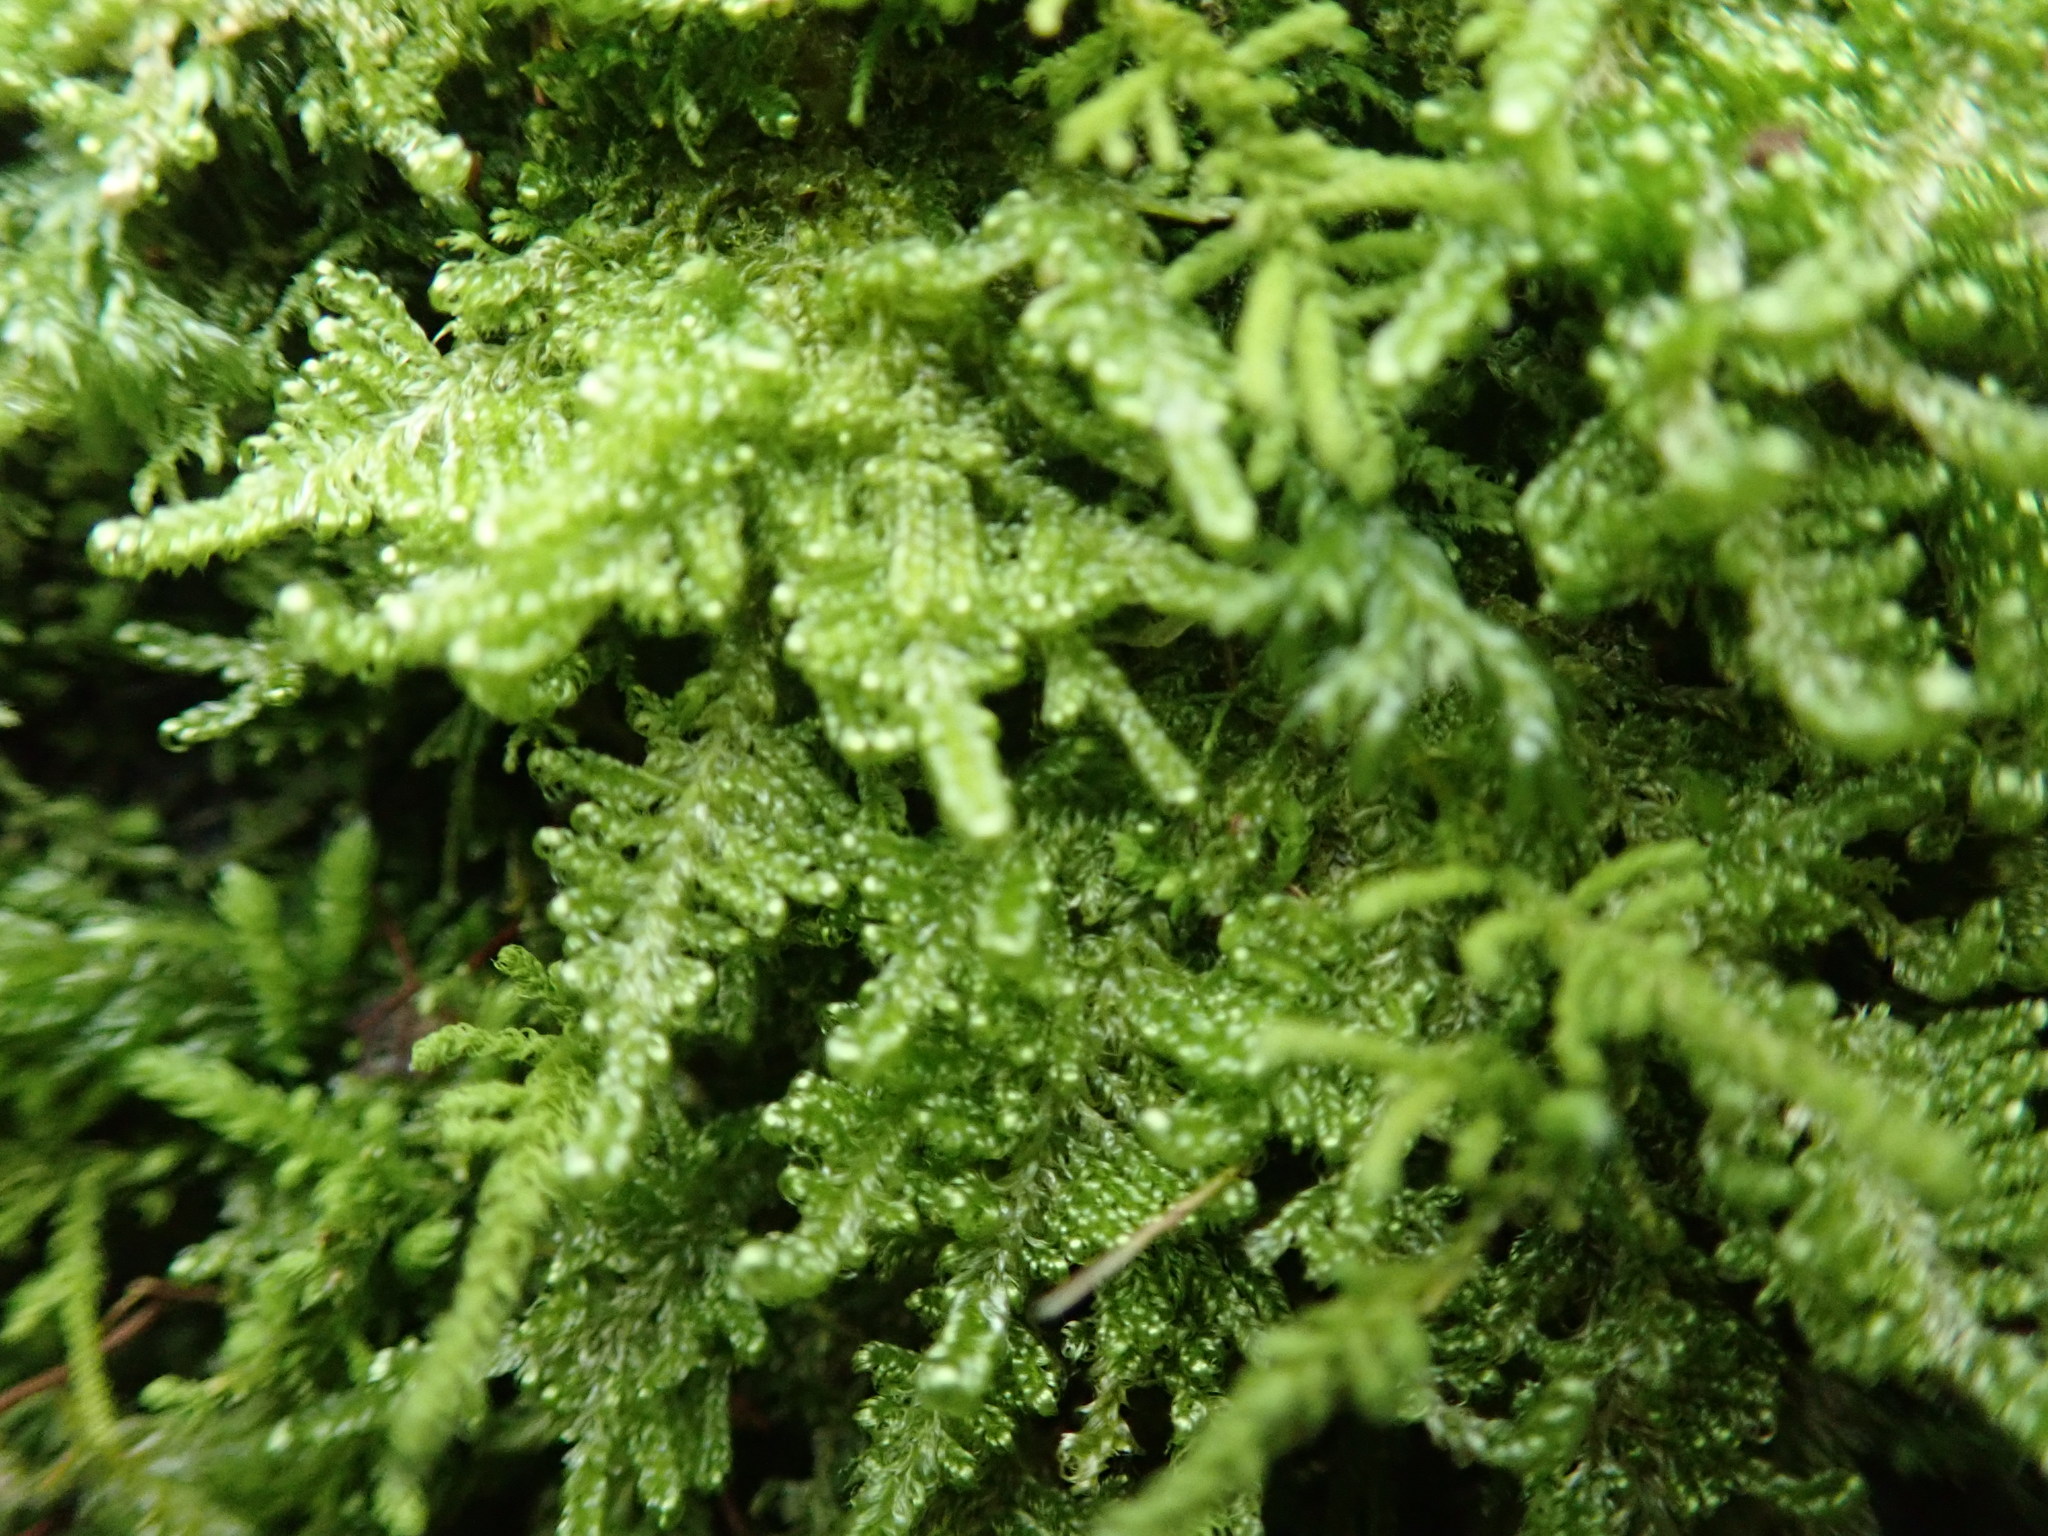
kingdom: Plantae
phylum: Bryophyta
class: Bryopsida
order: Hypnales
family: Stereodontaceae
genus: Stereodon
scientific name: Stereodon subimponens
